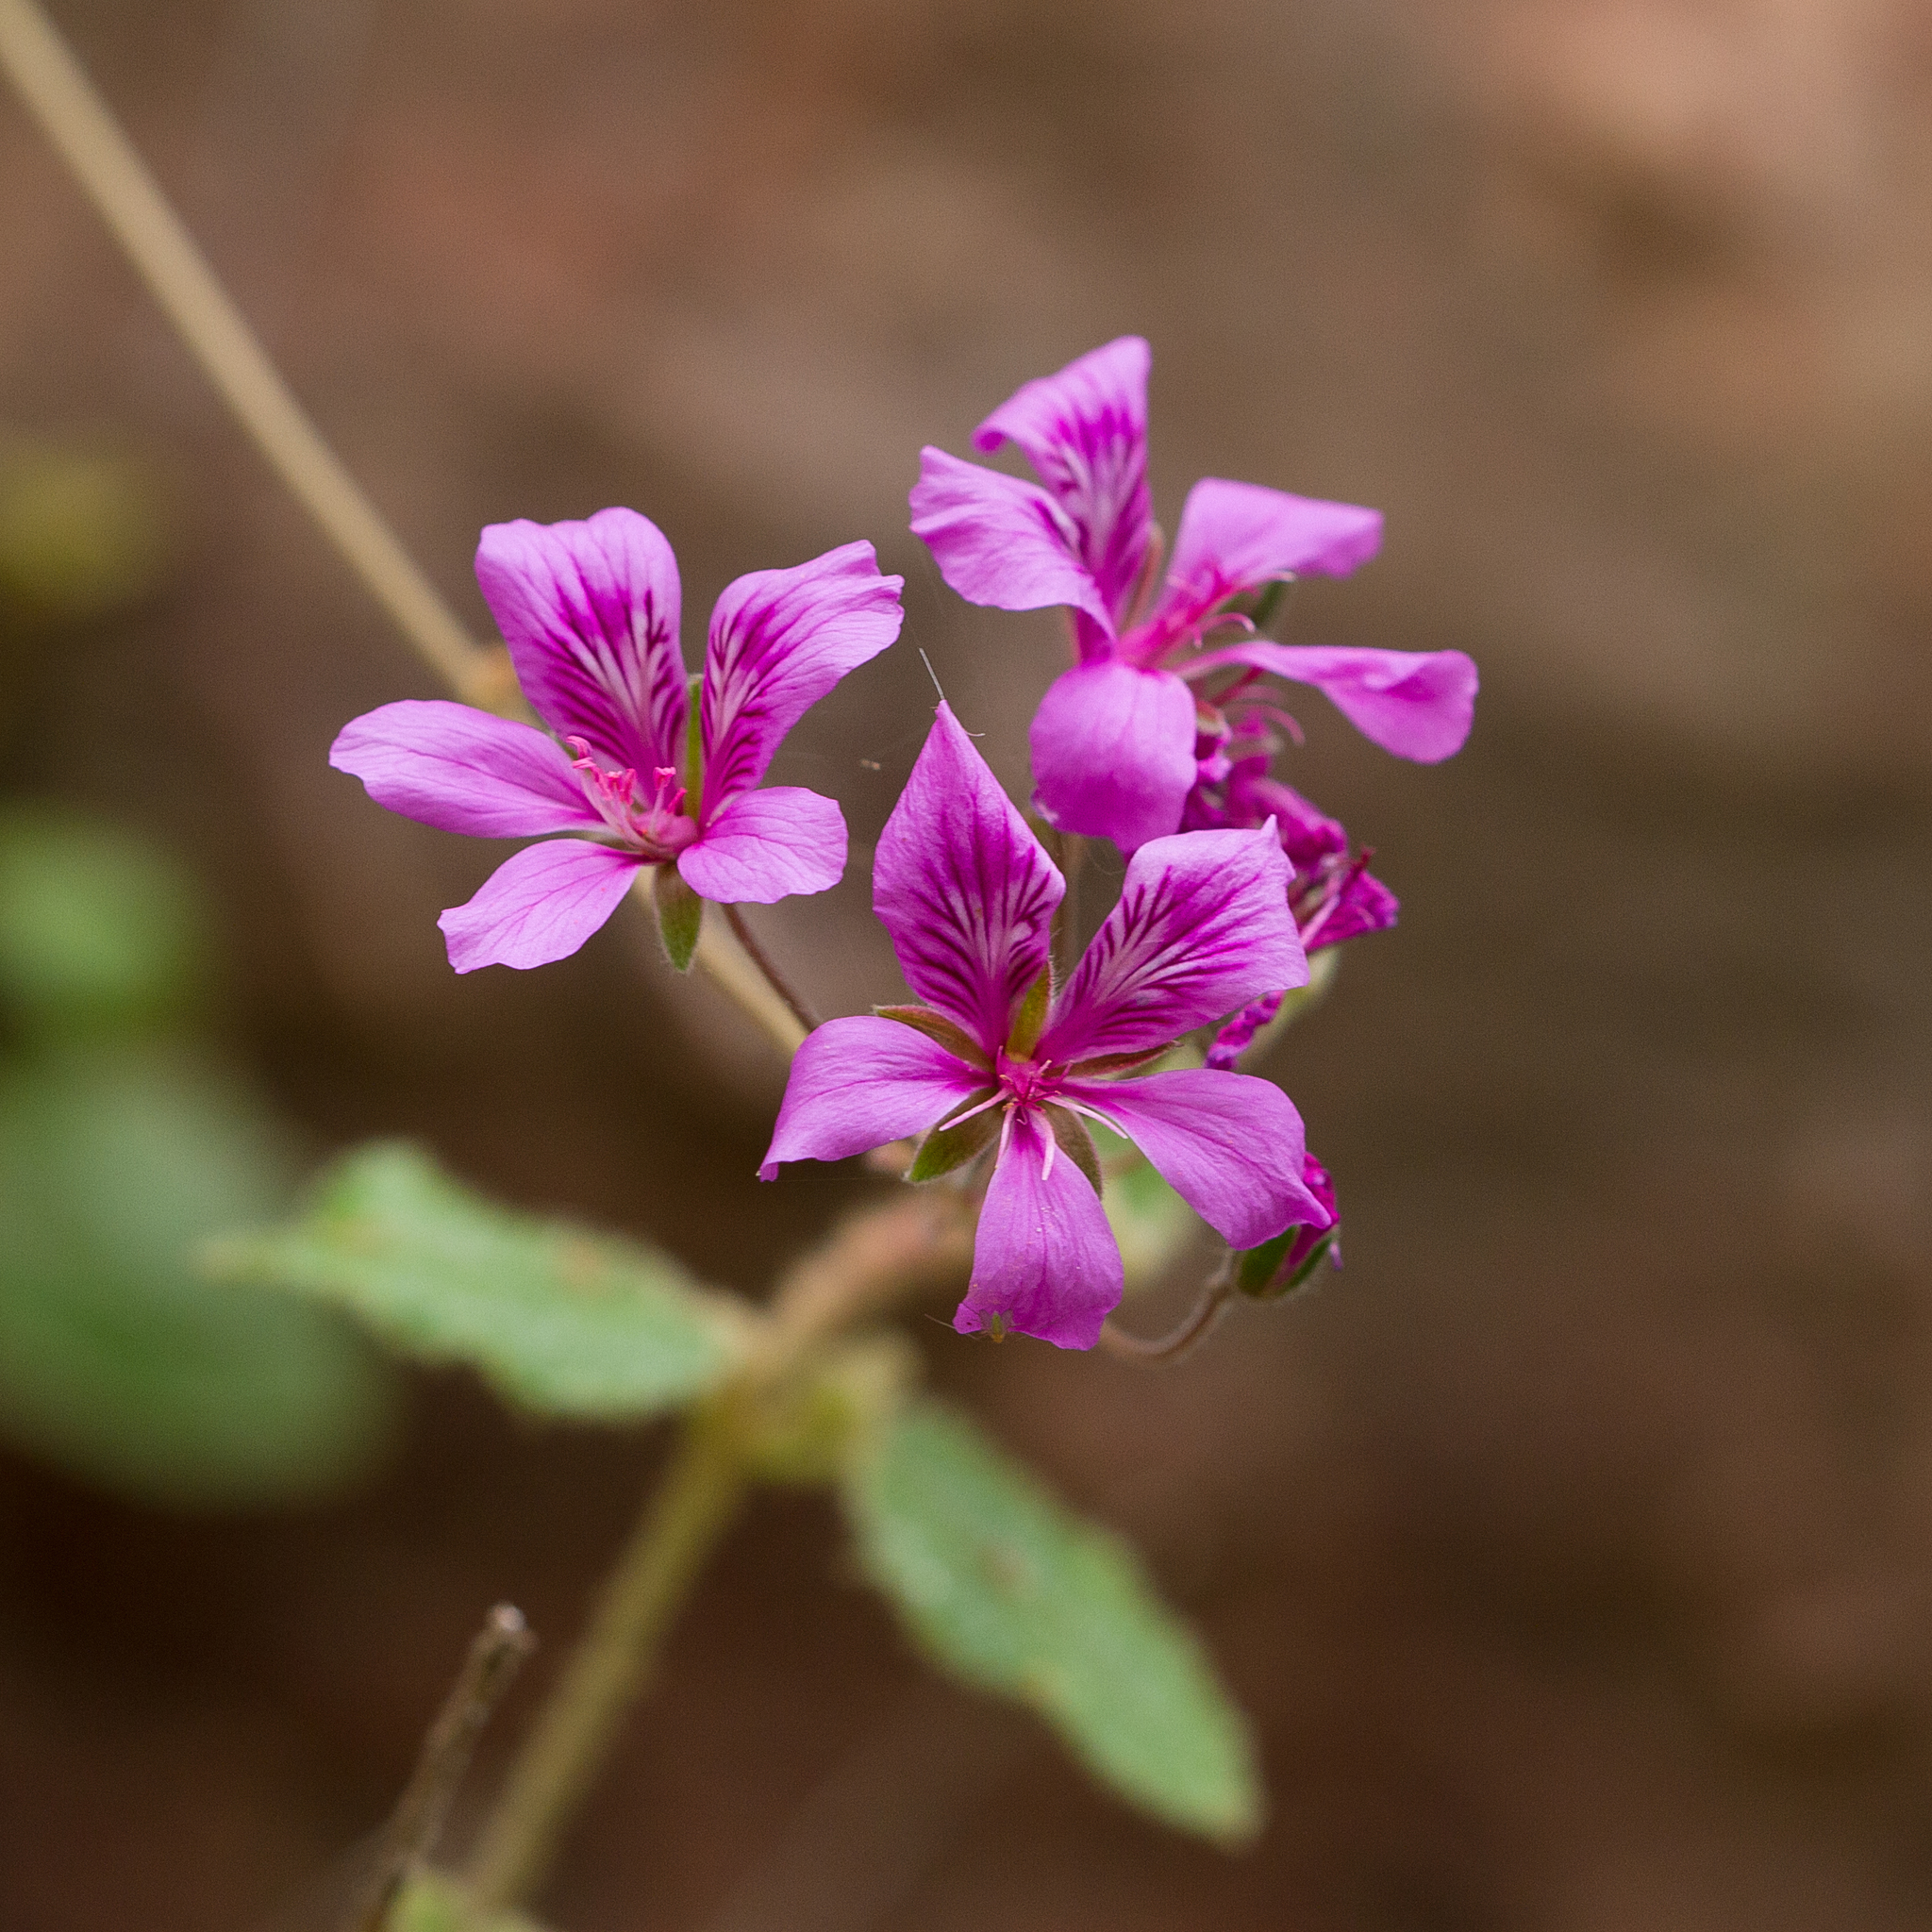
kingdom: Plantae
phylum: Tracheophyta
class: Magnoliopsida
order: Geraniales
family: Geraniaceae
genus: Pelargonium
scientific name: Pelargonium rodneyanum
